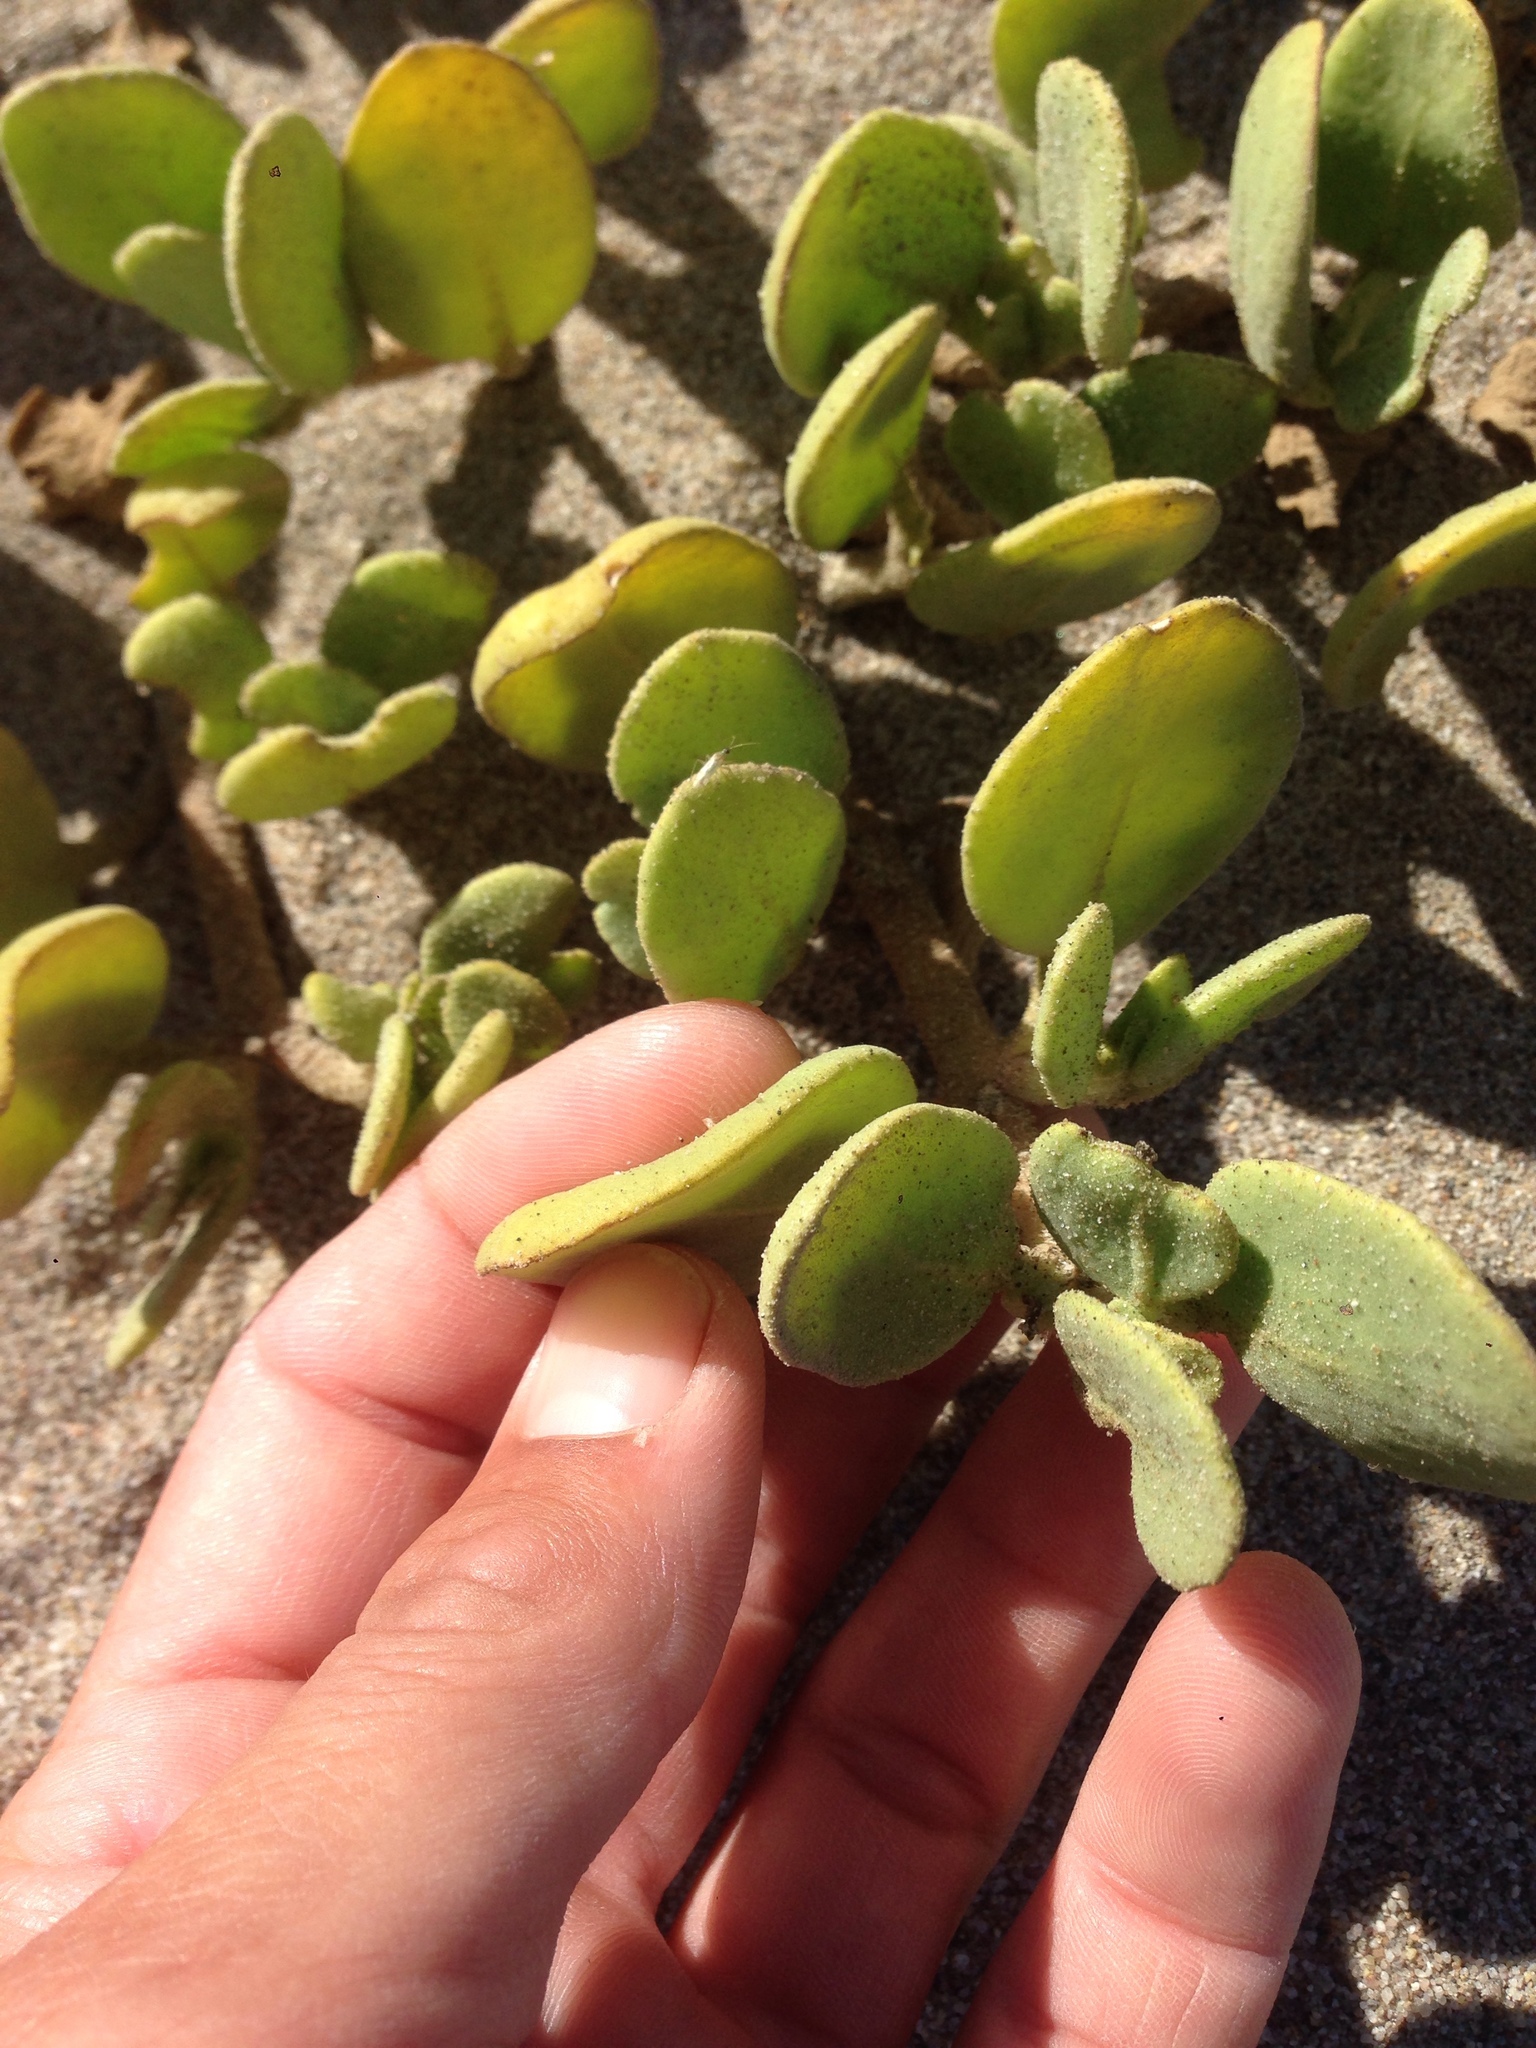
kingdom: Plantae
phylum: Tracheophyta
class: Magnoliopsida
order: Caryophyllales
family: Nyctaginaceae
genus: Abronia
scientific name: Abronia maritima
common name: Red sand-verbena
